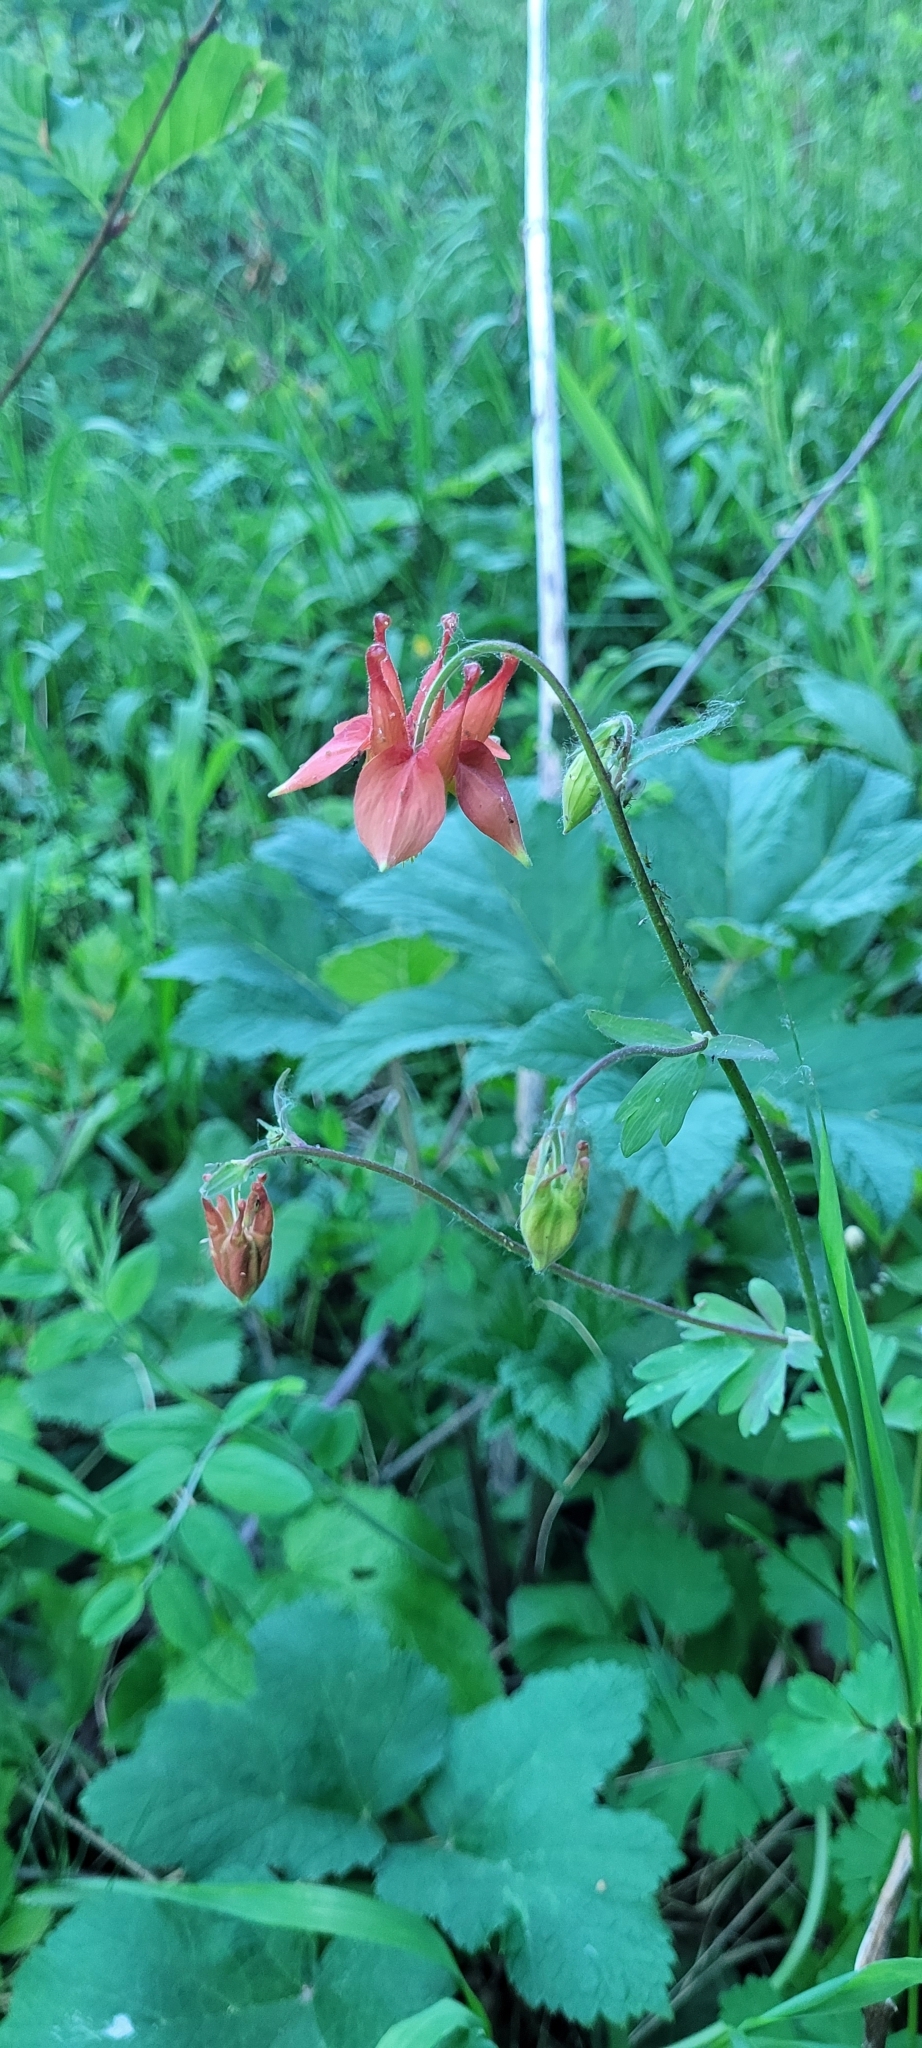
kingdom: Plantae
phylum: Tracheophyta
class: Magnoliopsida
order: Ranunculales
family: Ranunculaceae
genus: Aquilegia
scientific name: Aquilegia formosa
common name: Sitka columbine
